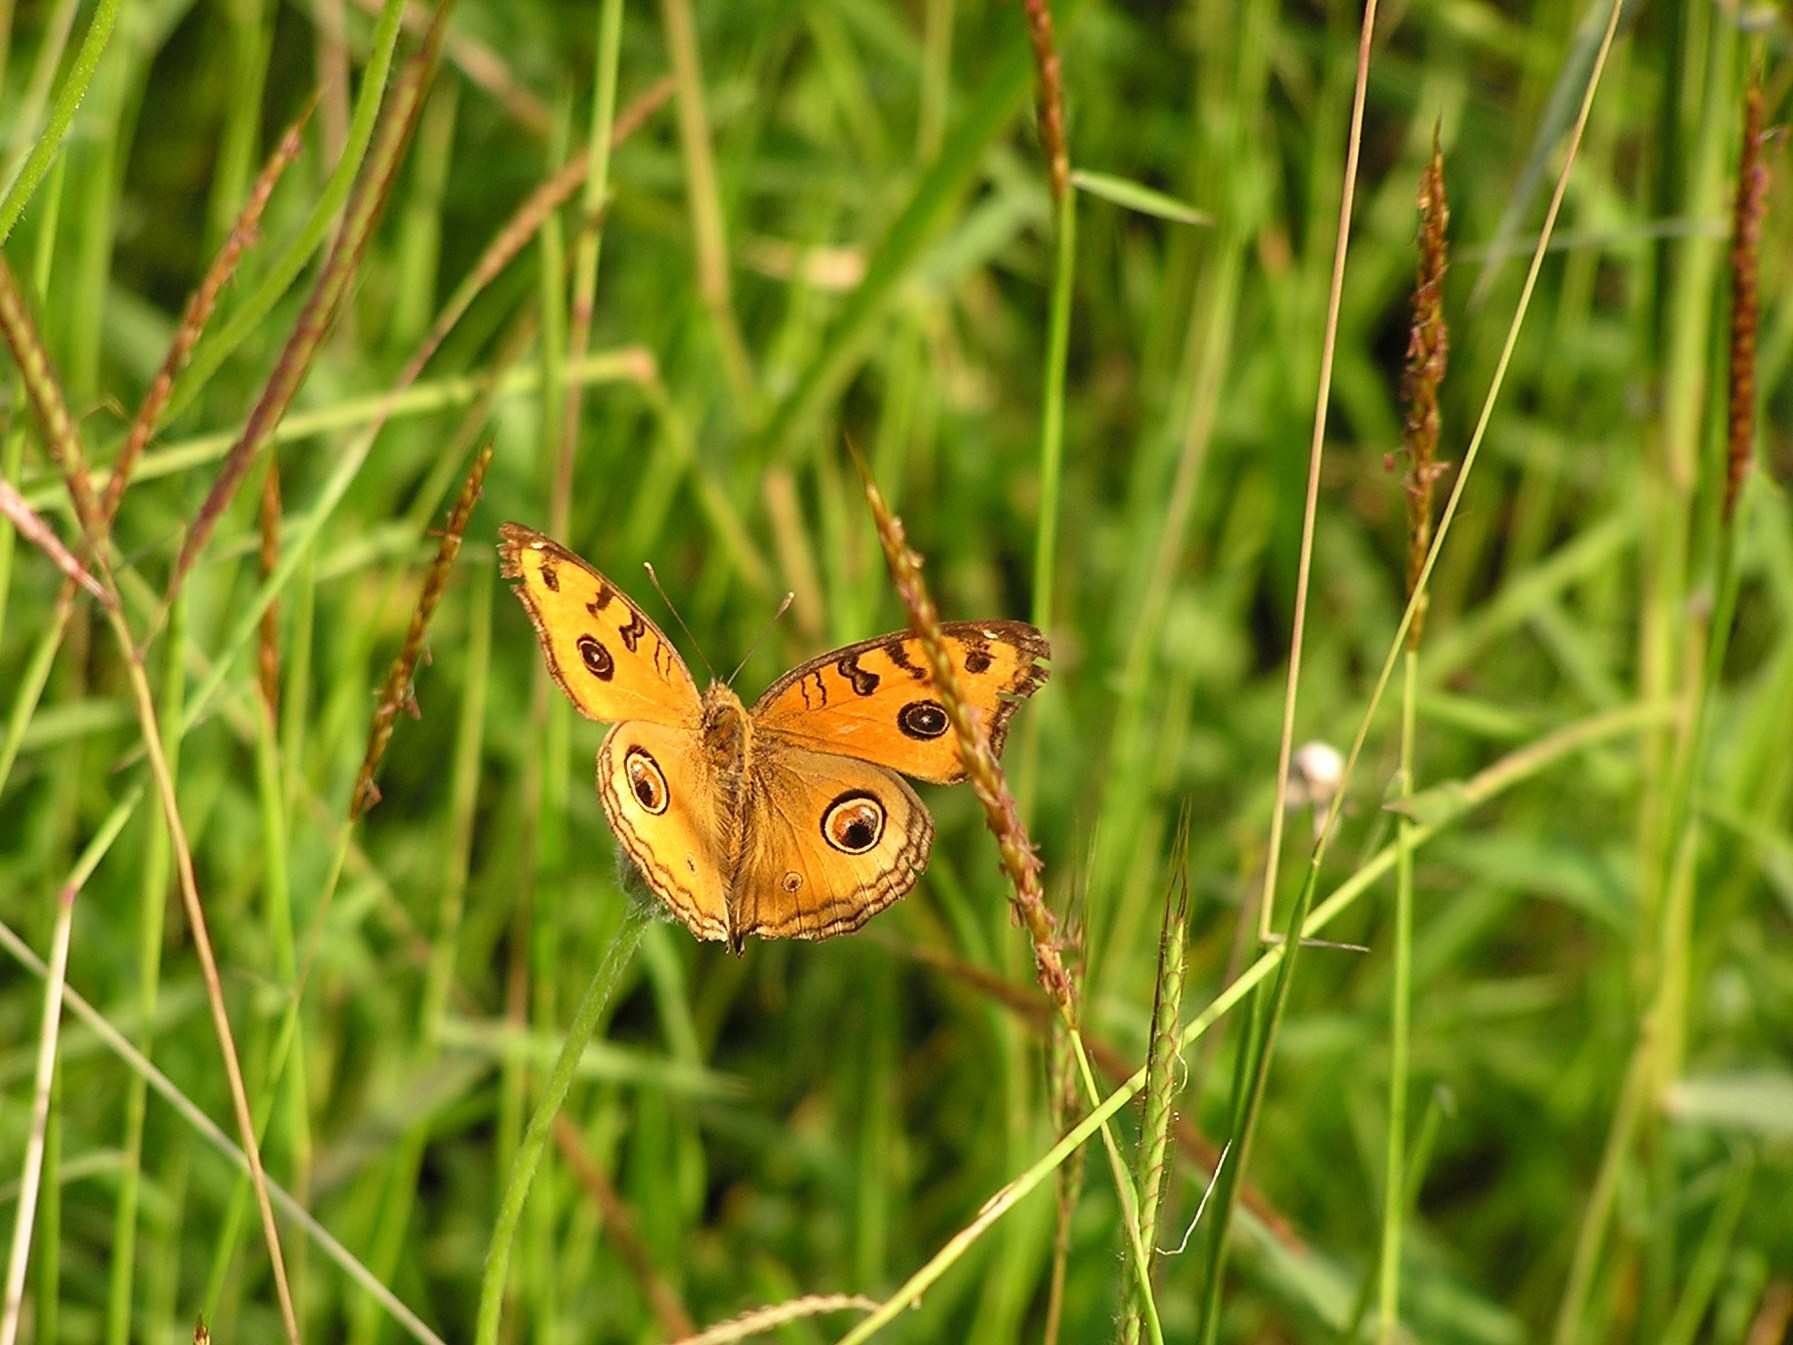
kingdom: Animalia
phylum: Arthropoda
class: Insecta
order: Lepidoptera
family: Nymphalidae
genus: Junonia
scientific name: Junonia almana
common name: Peacock pansy
